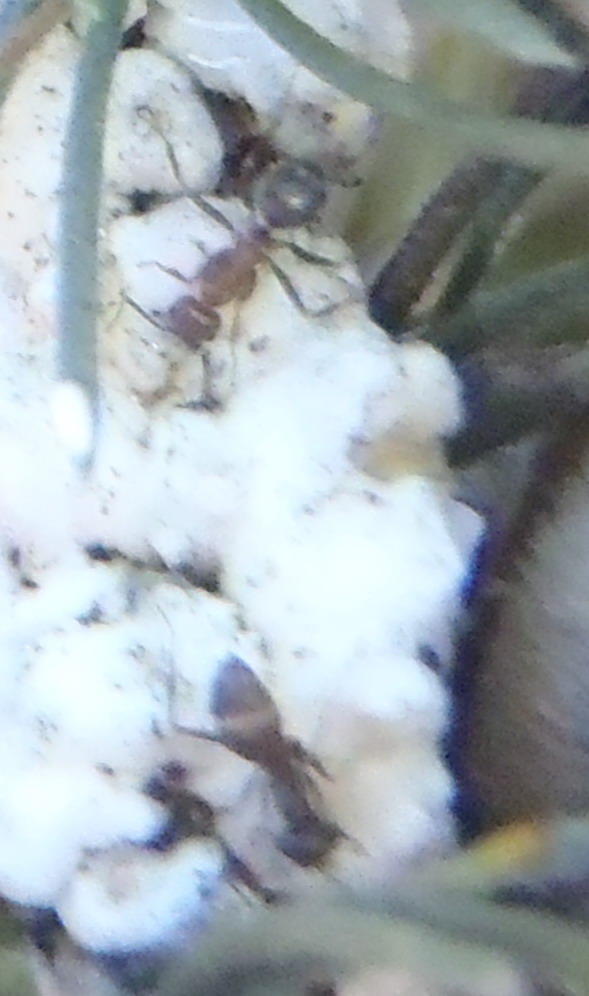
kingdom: Animalia
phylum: Arthropoda
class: Insecta
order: Hymenoptera
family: Formicidae
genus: Anoplolepis
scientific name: Anoplolepis steingroeveri
